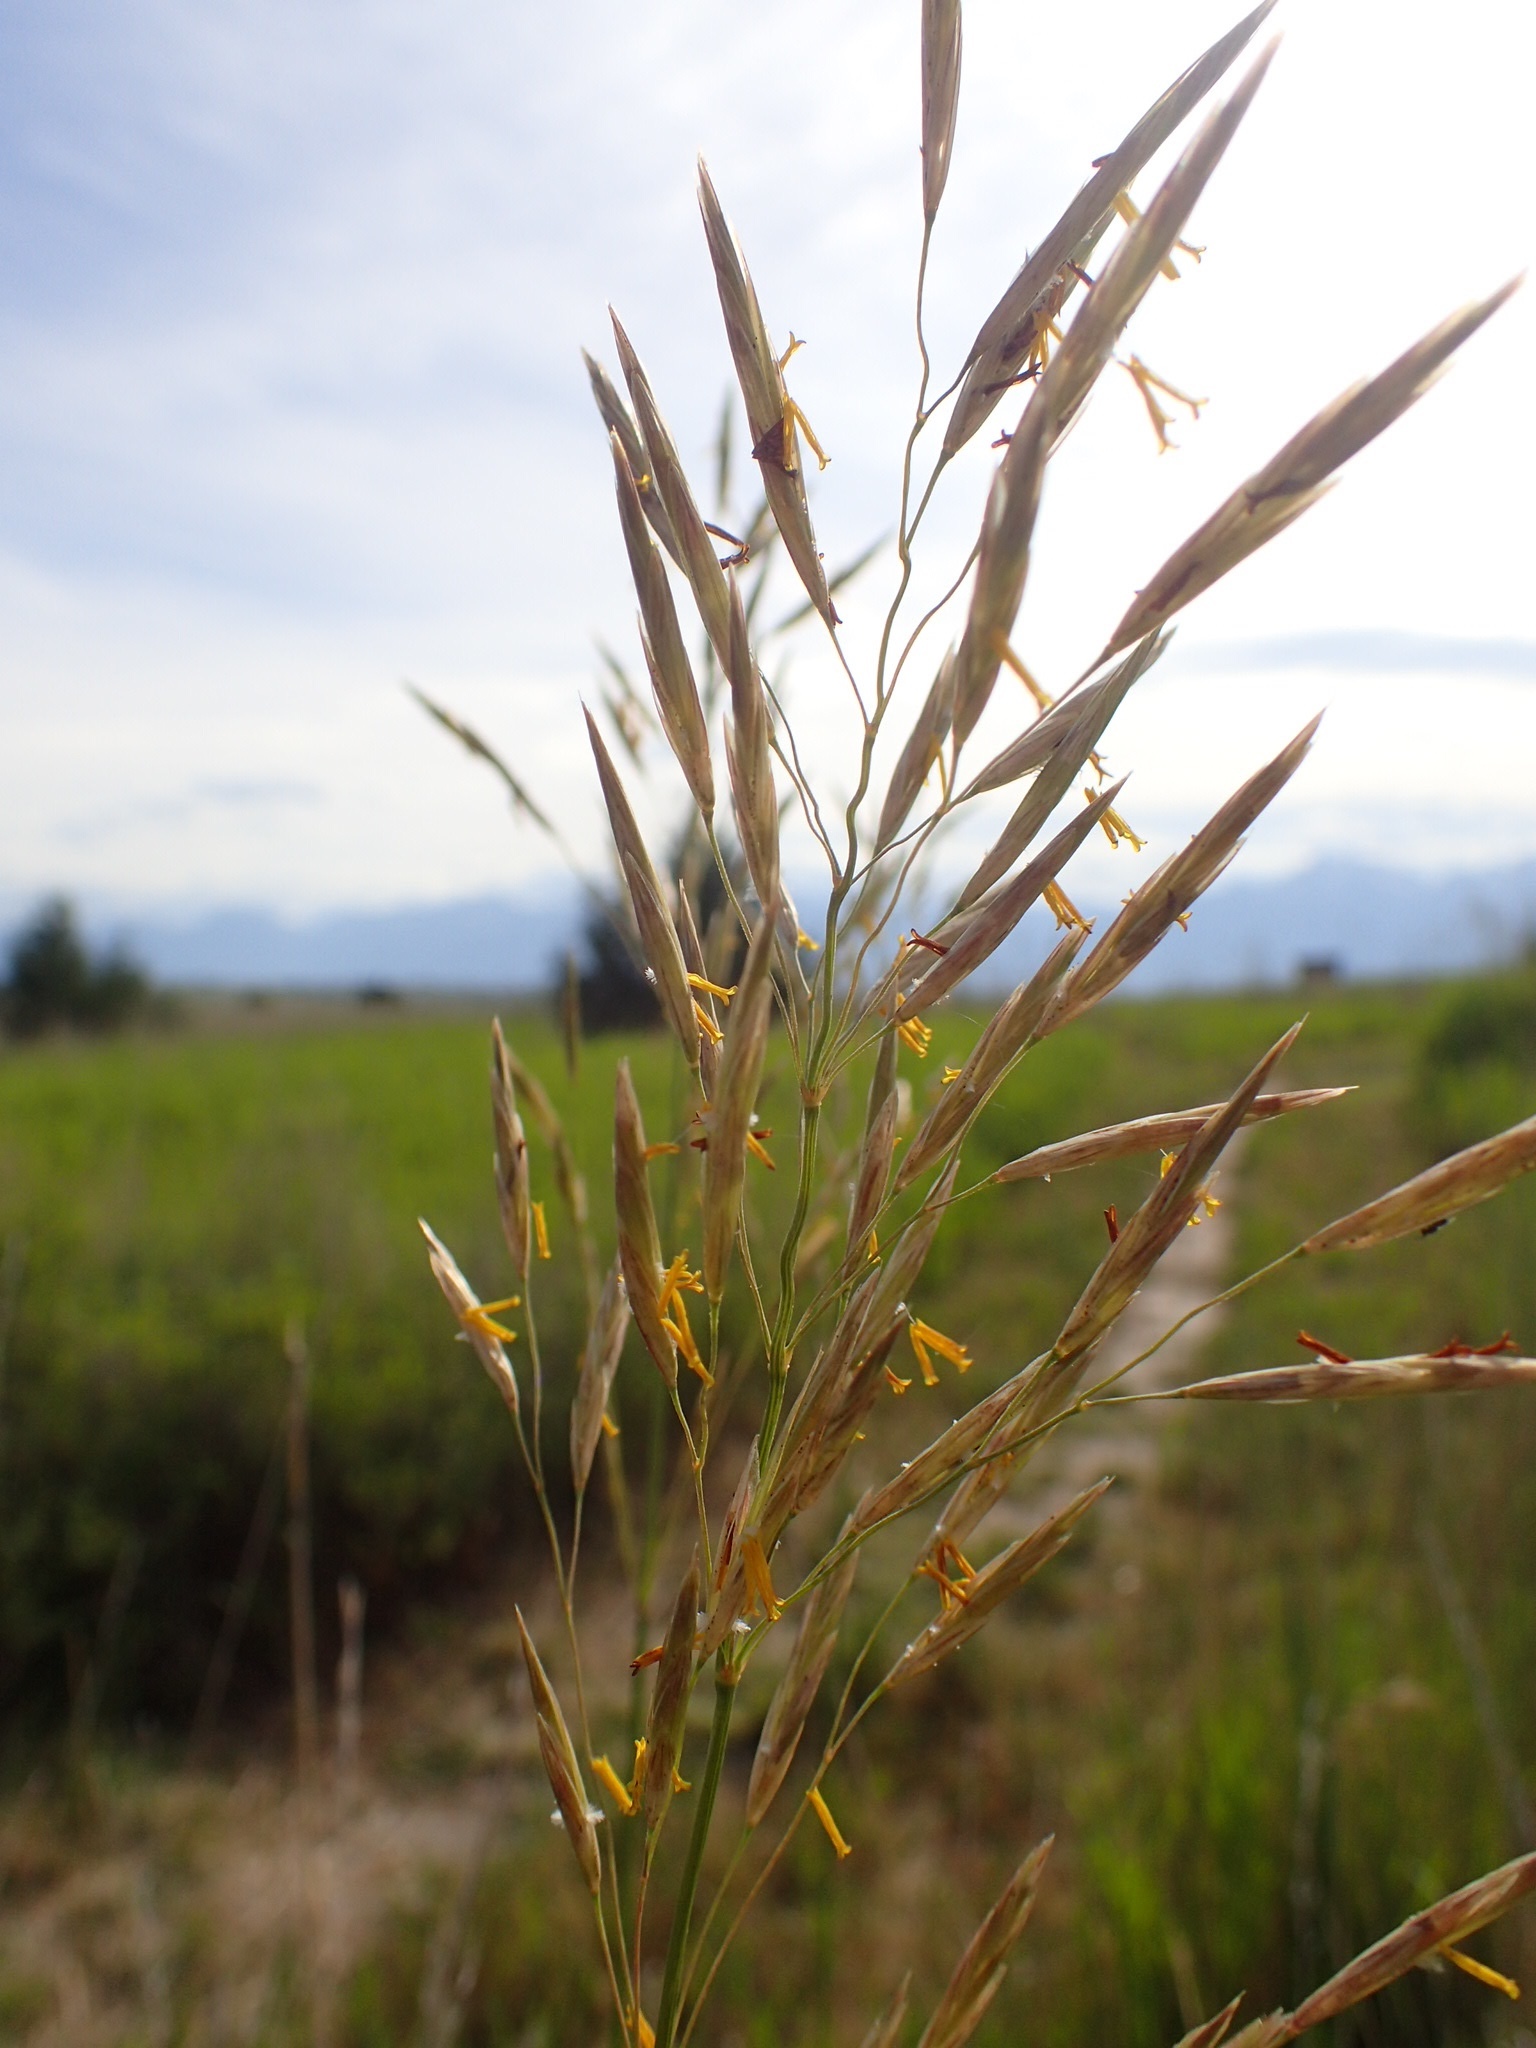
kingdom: Plantae
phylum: Tracheophyta
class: Liliopsida
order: Poales
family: Poaceae
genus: Bromus
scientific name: Bromus inermis
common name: Smooth brome
